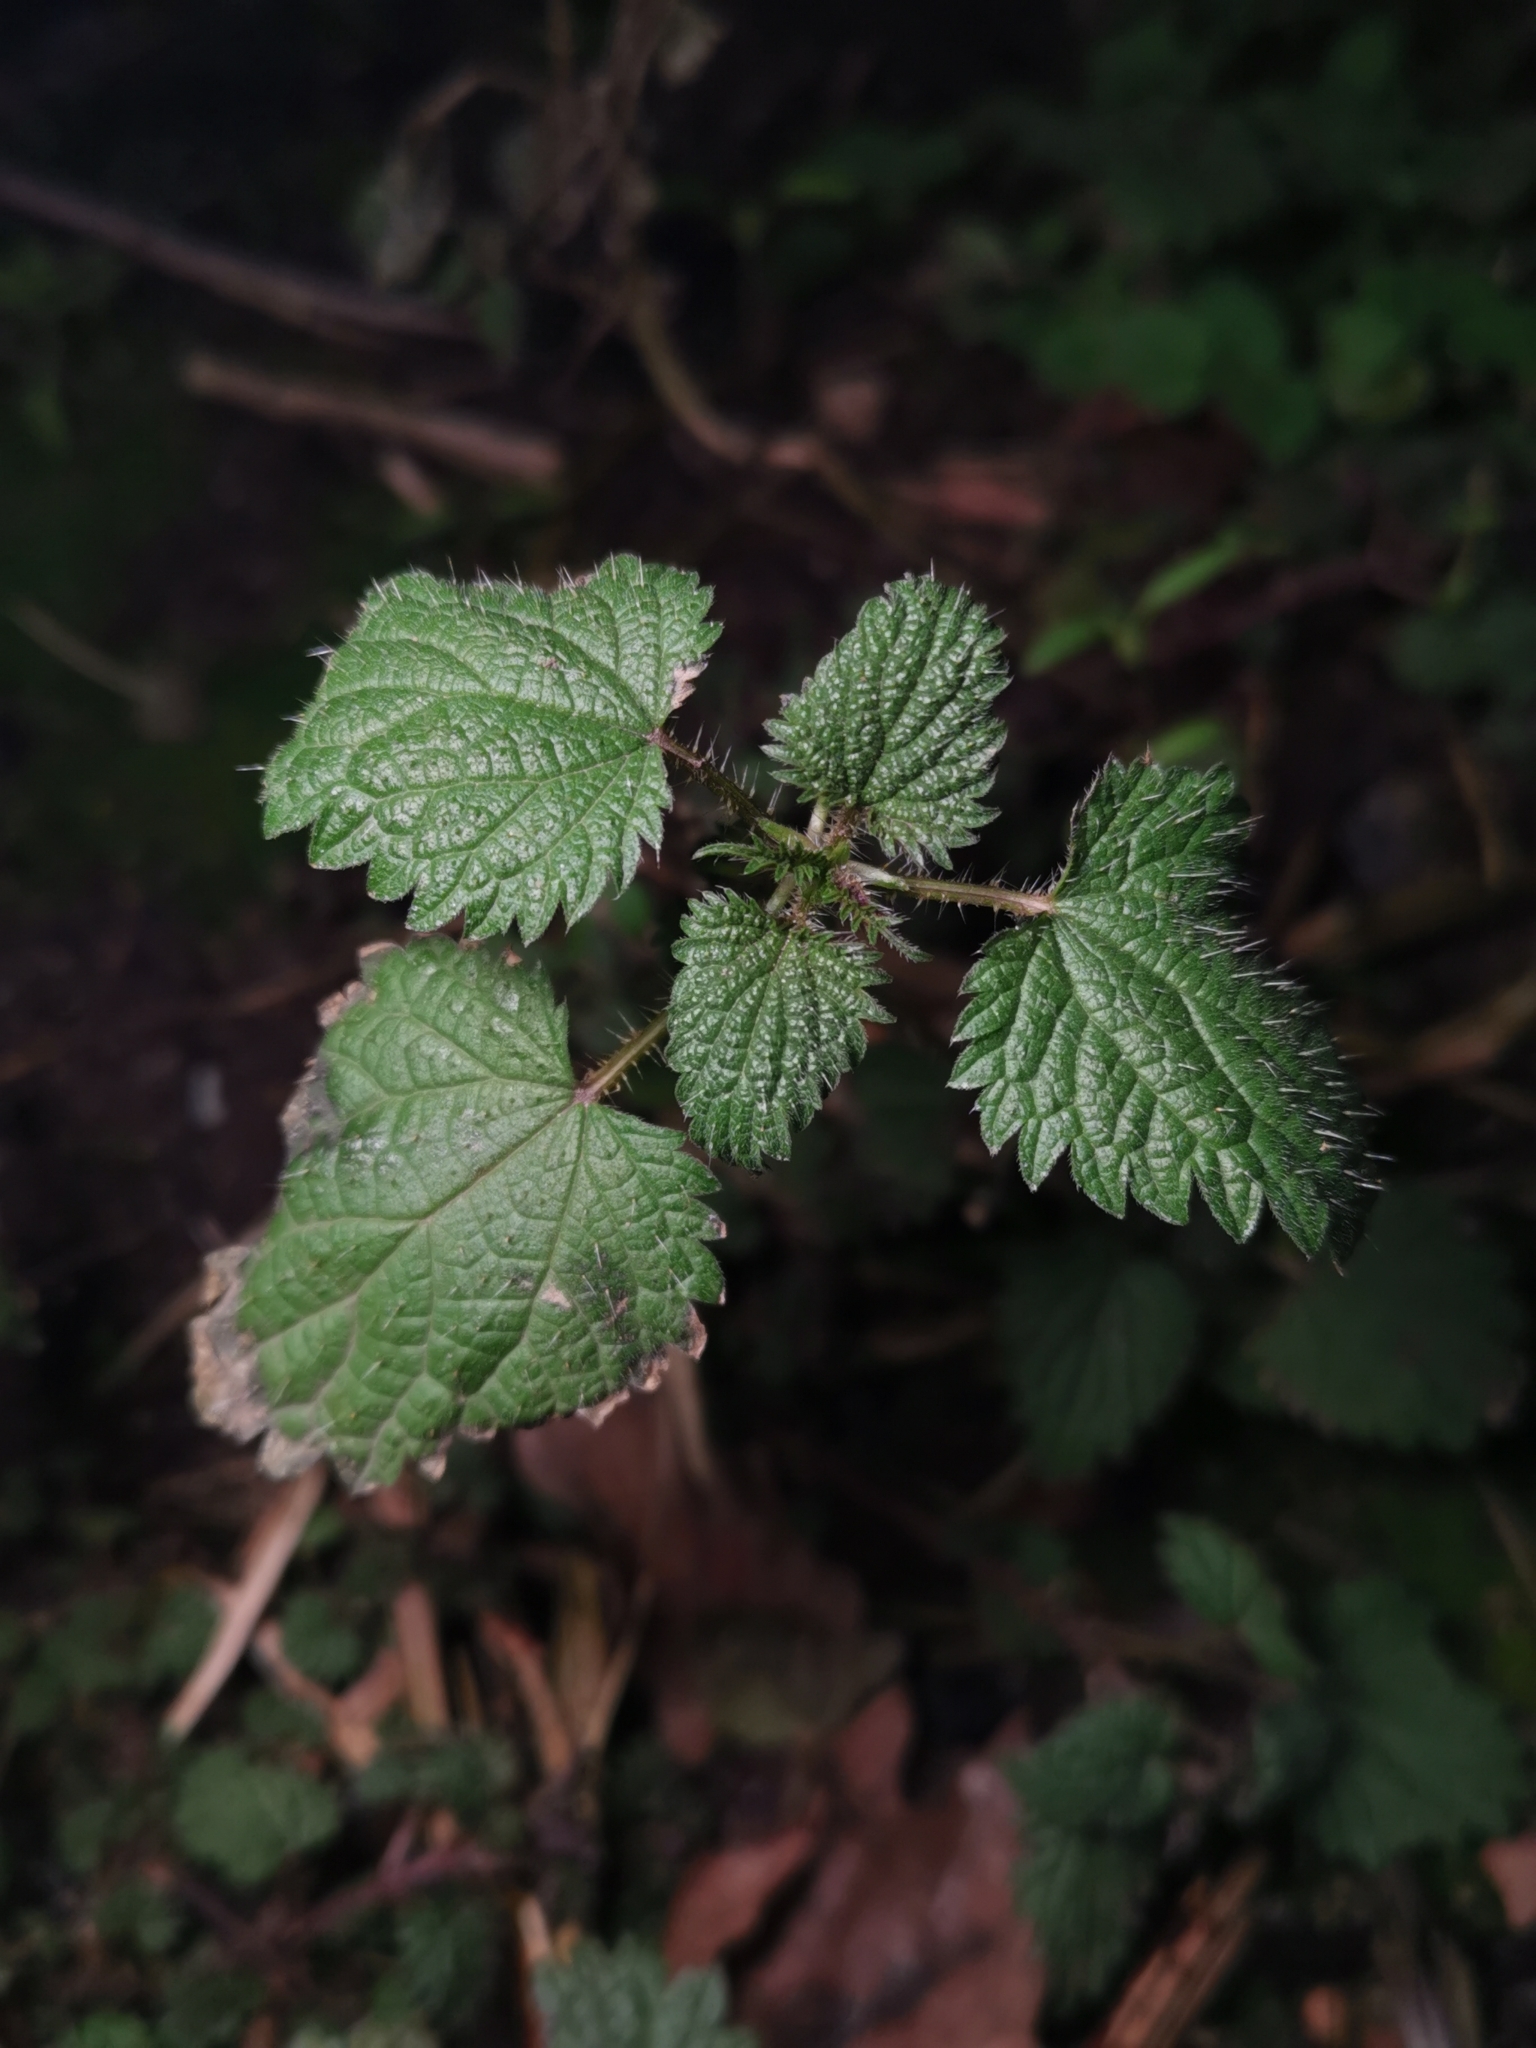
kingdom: Plantae
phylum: Tracheophyta
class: Magnoliopsida
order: Rosales
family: Urticaceae
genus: Urtica
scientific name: Urtica dioica
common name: Common nettle
